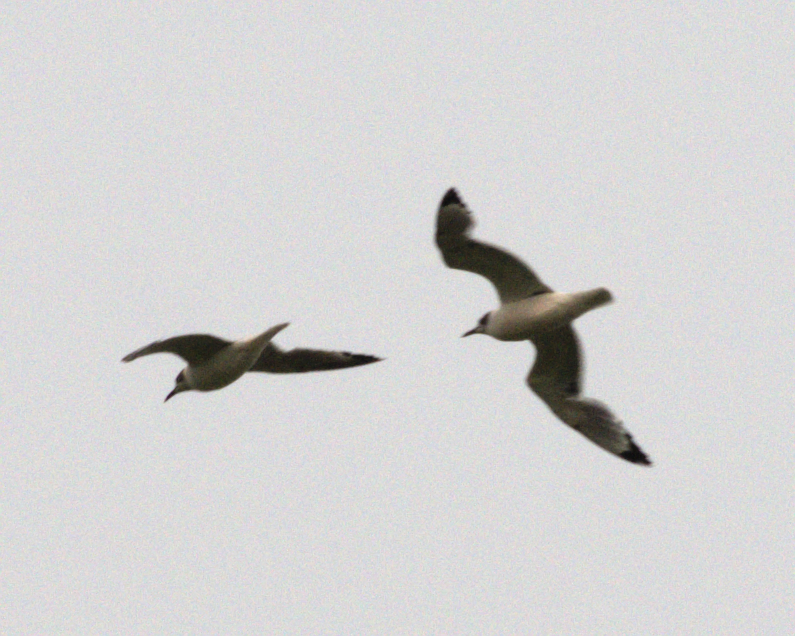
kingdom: Animalia
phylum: Chordata
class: Aves
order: Charadriiformes
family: Laridae
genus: Leucophaeus
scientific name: Leucophaeus pipixcan
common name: Franklin's gull
